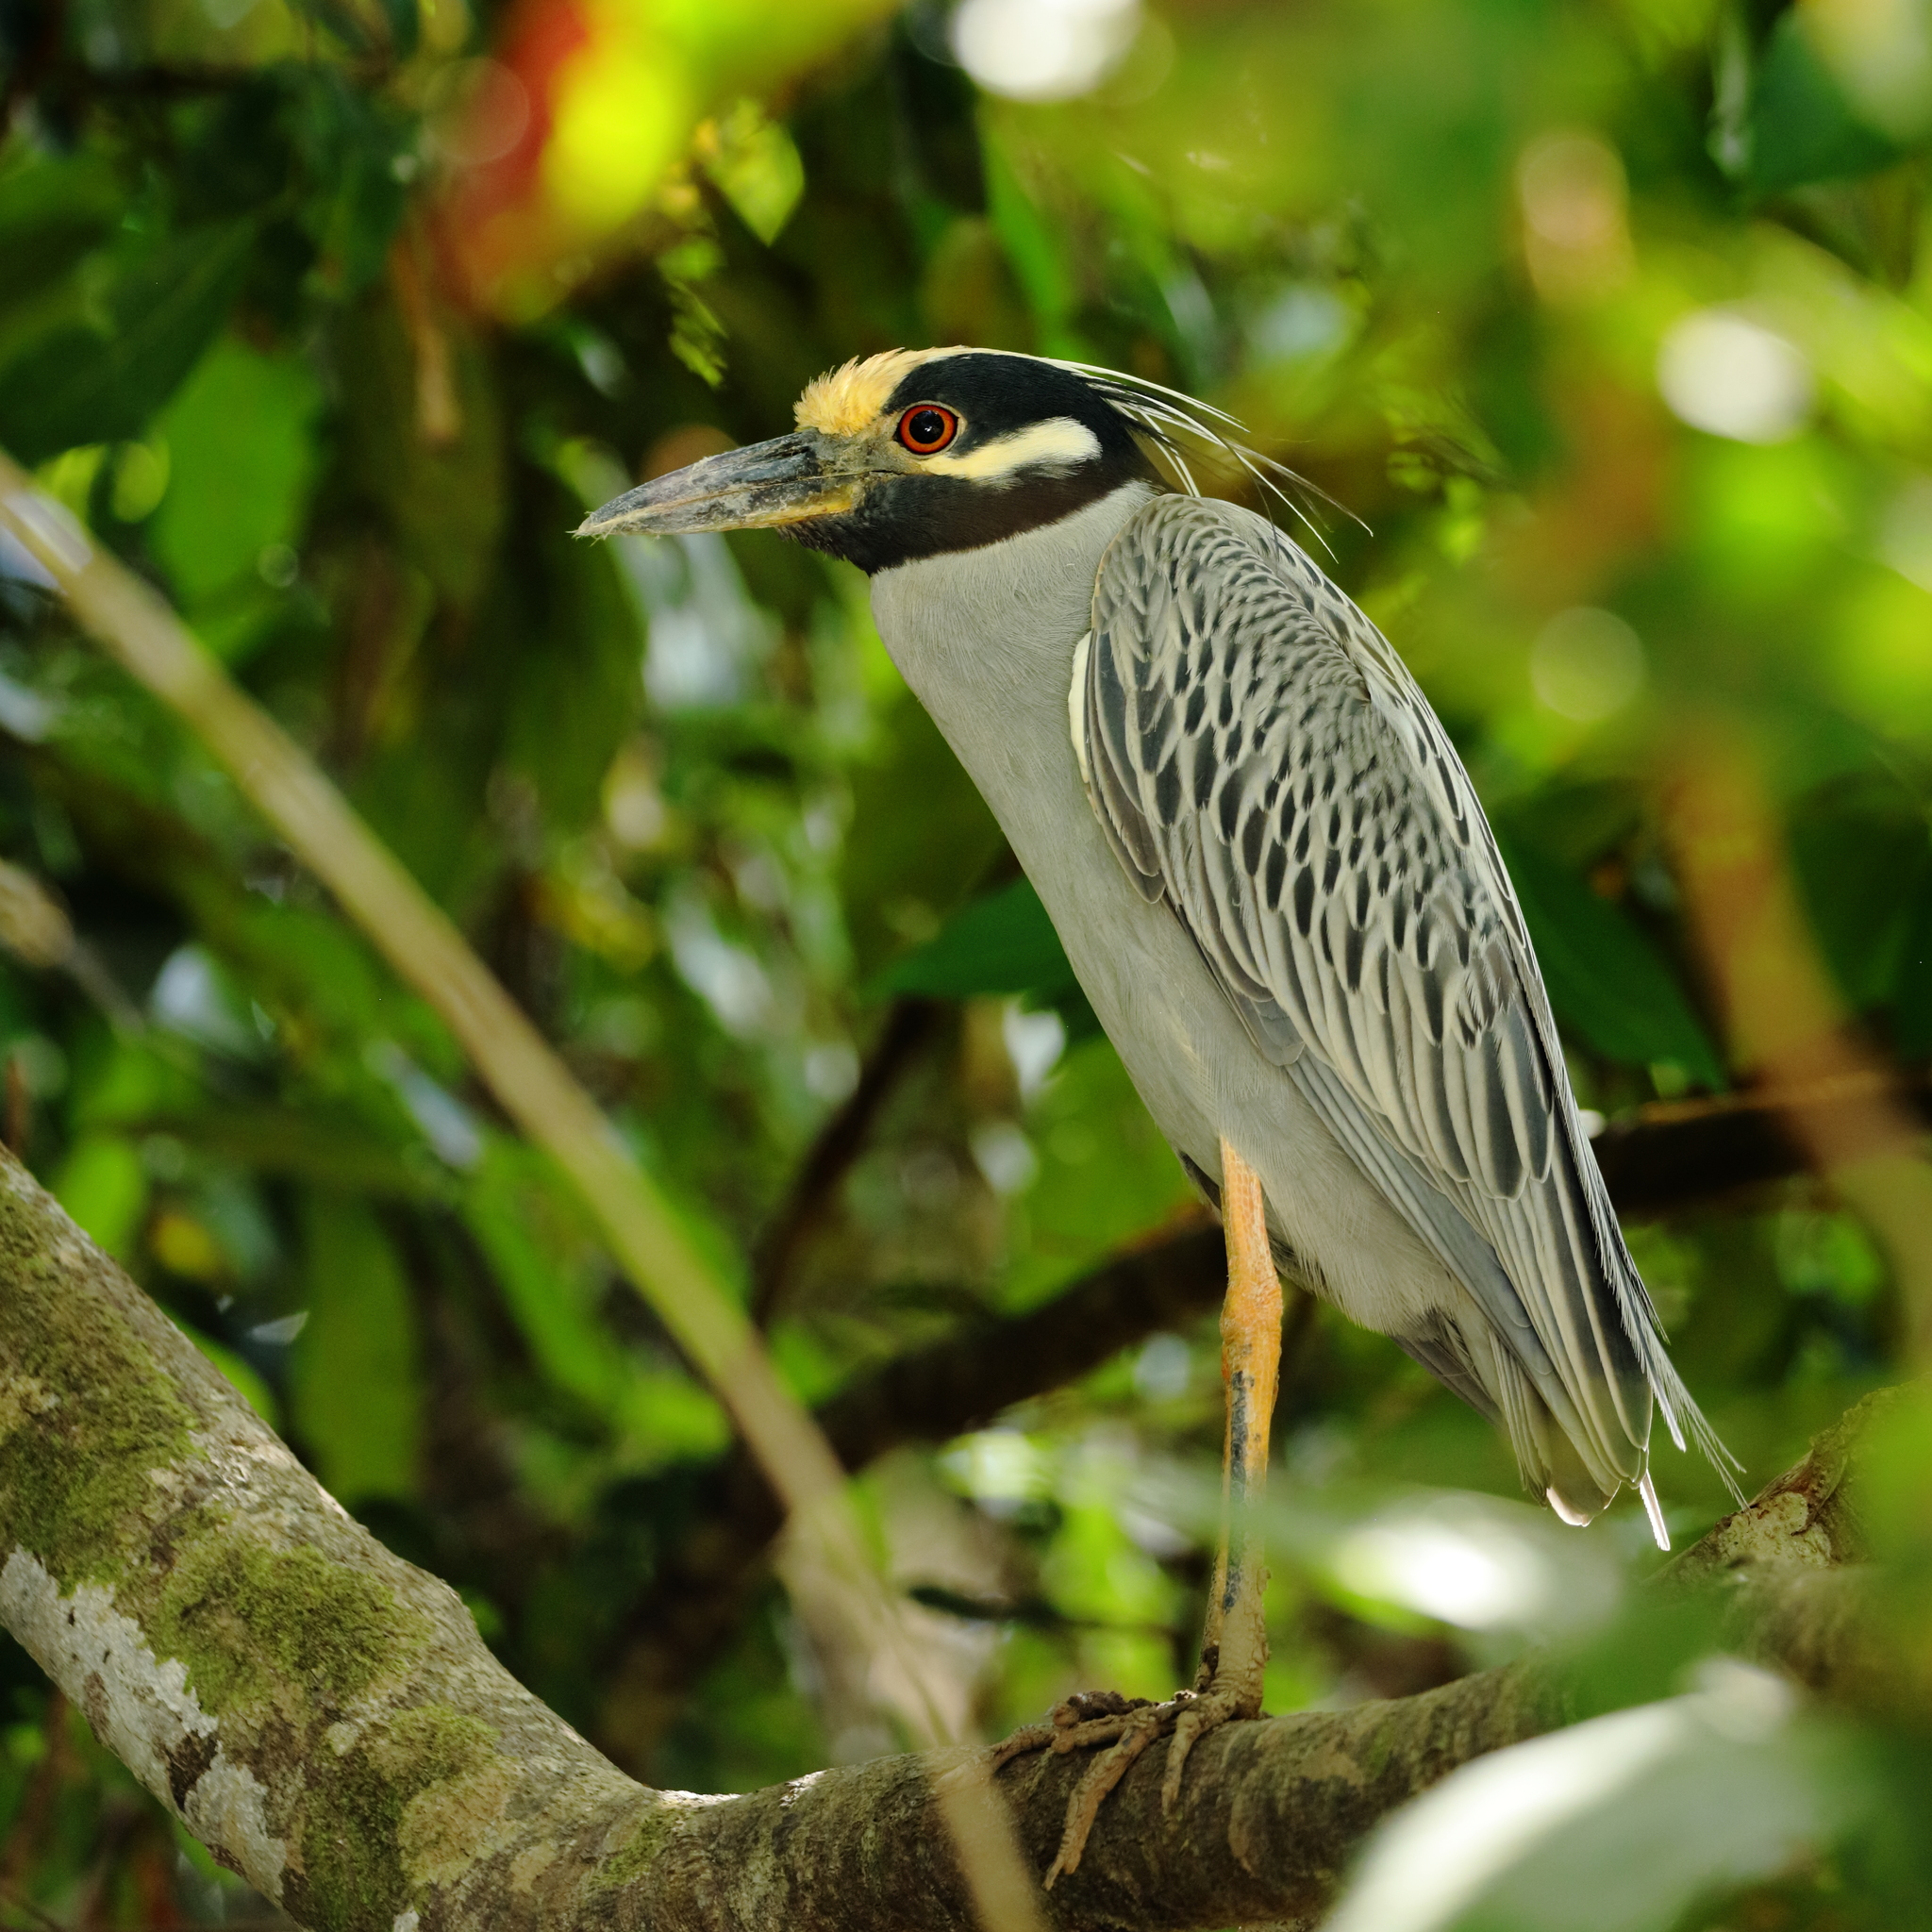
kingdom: Animalia
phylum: Chordata
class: Aves
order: Pelecaniformes
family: Ardeidae
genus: Nyctanassa
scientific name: Nyctanassa violacea
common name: Yellow-crowned night heron
